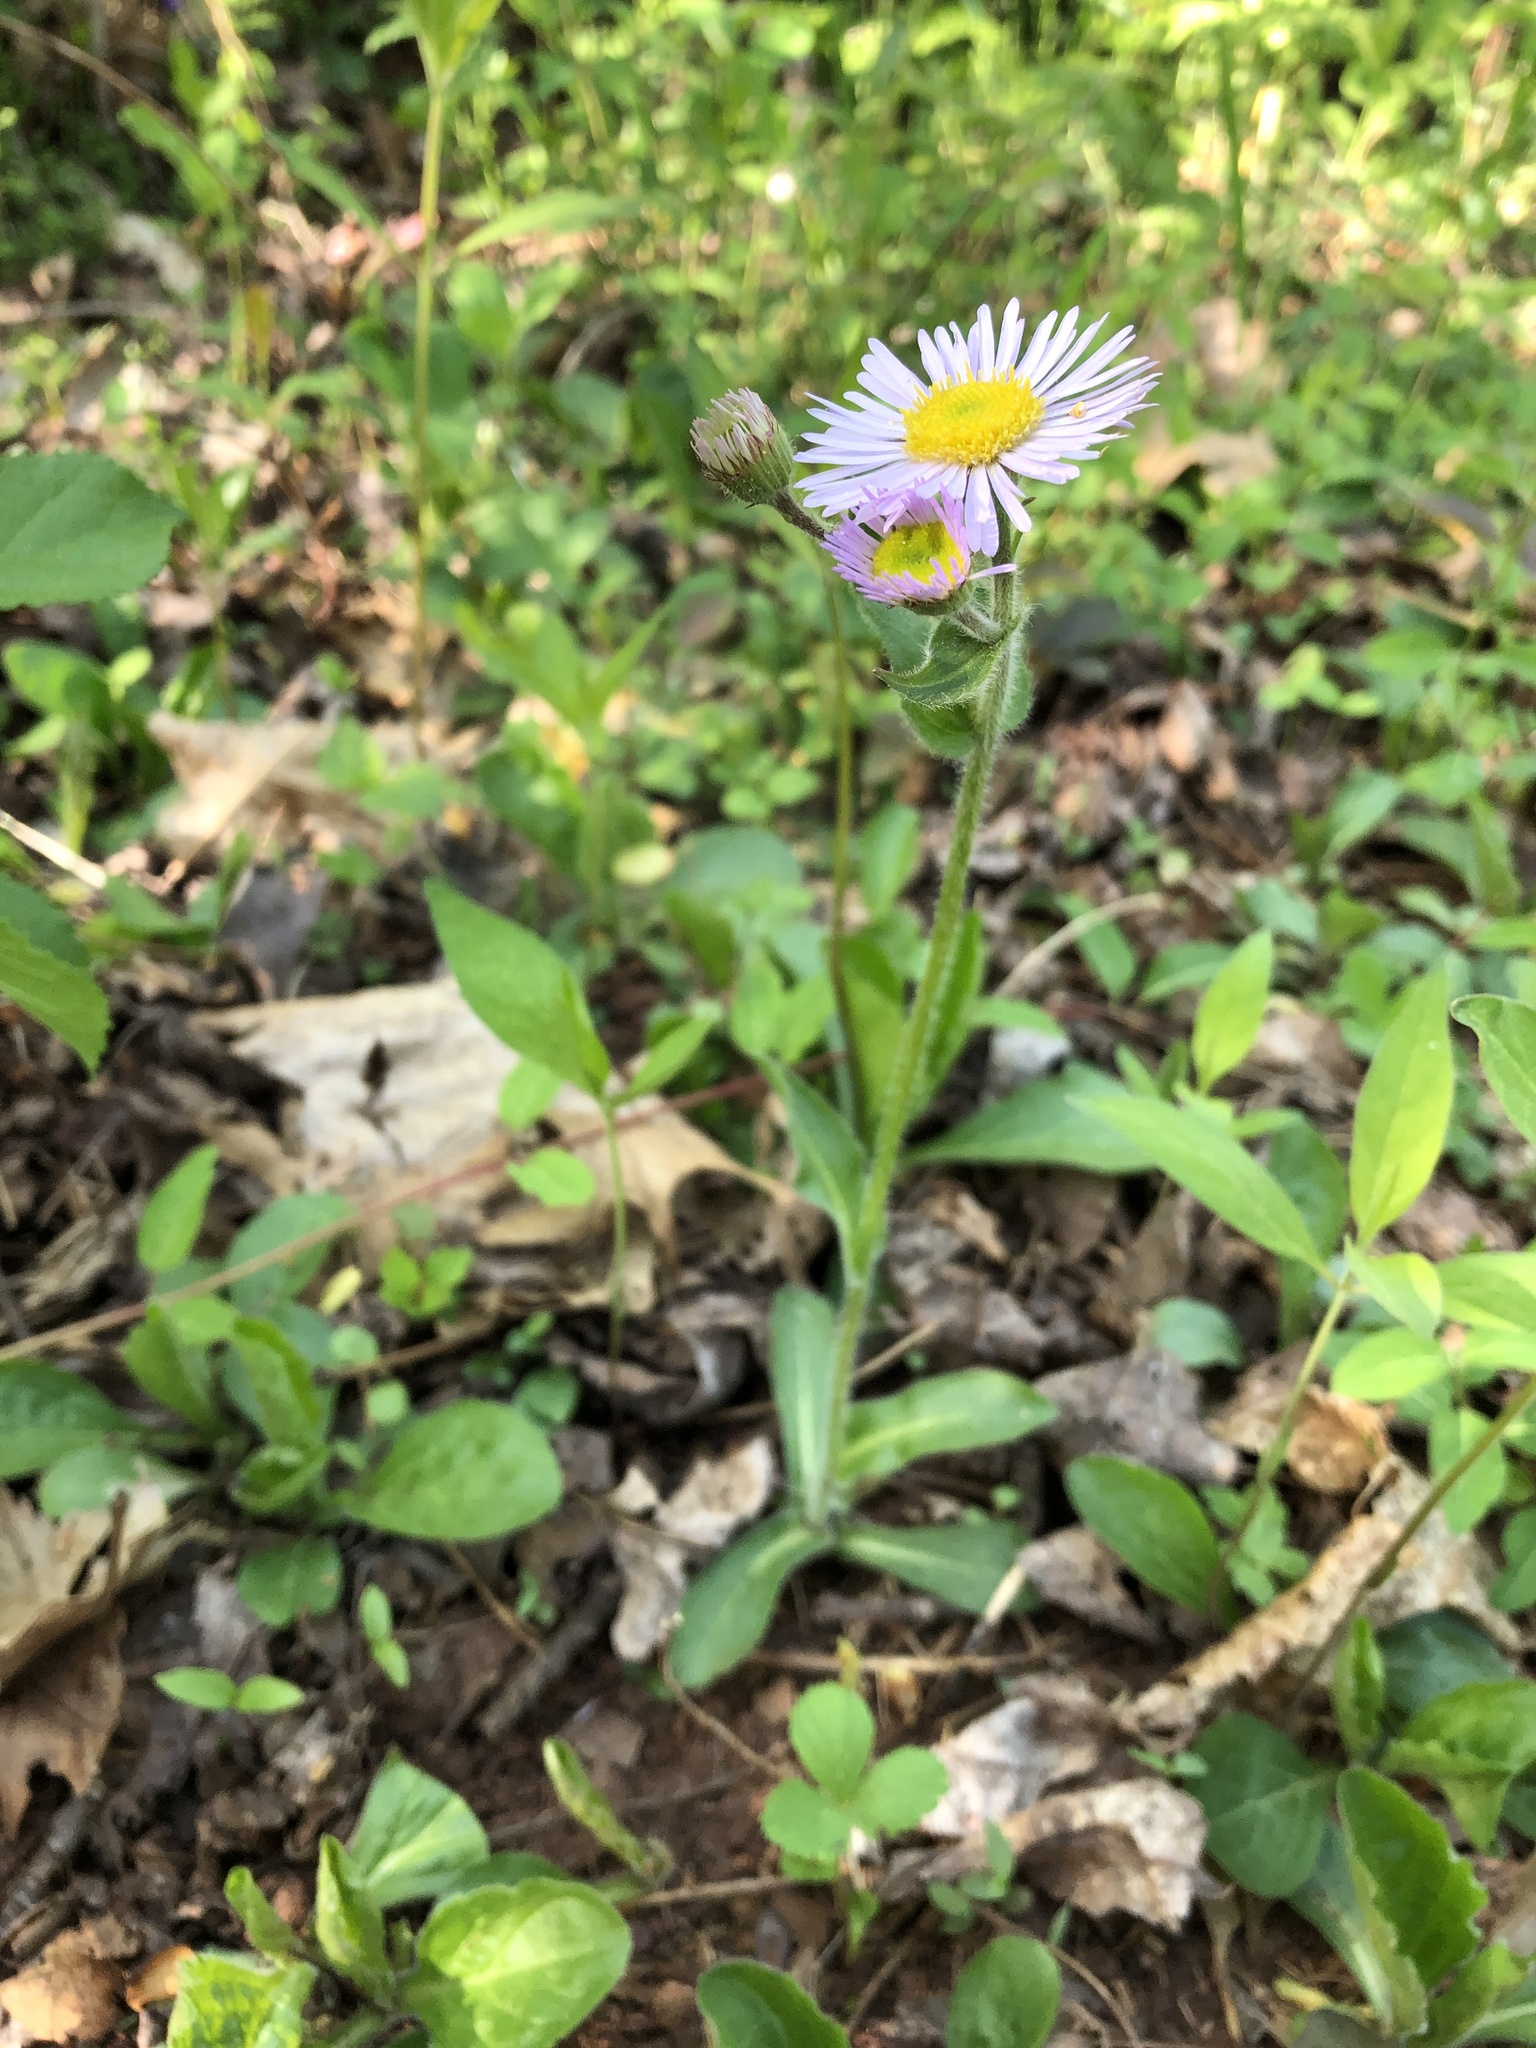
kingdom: Plantae
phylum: Tracheophyta
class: Magnoliopsida
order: Asterales
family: Asteraceae
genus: Erigeron
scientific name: Erigeron pulchellus
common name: Hairy fleabane
